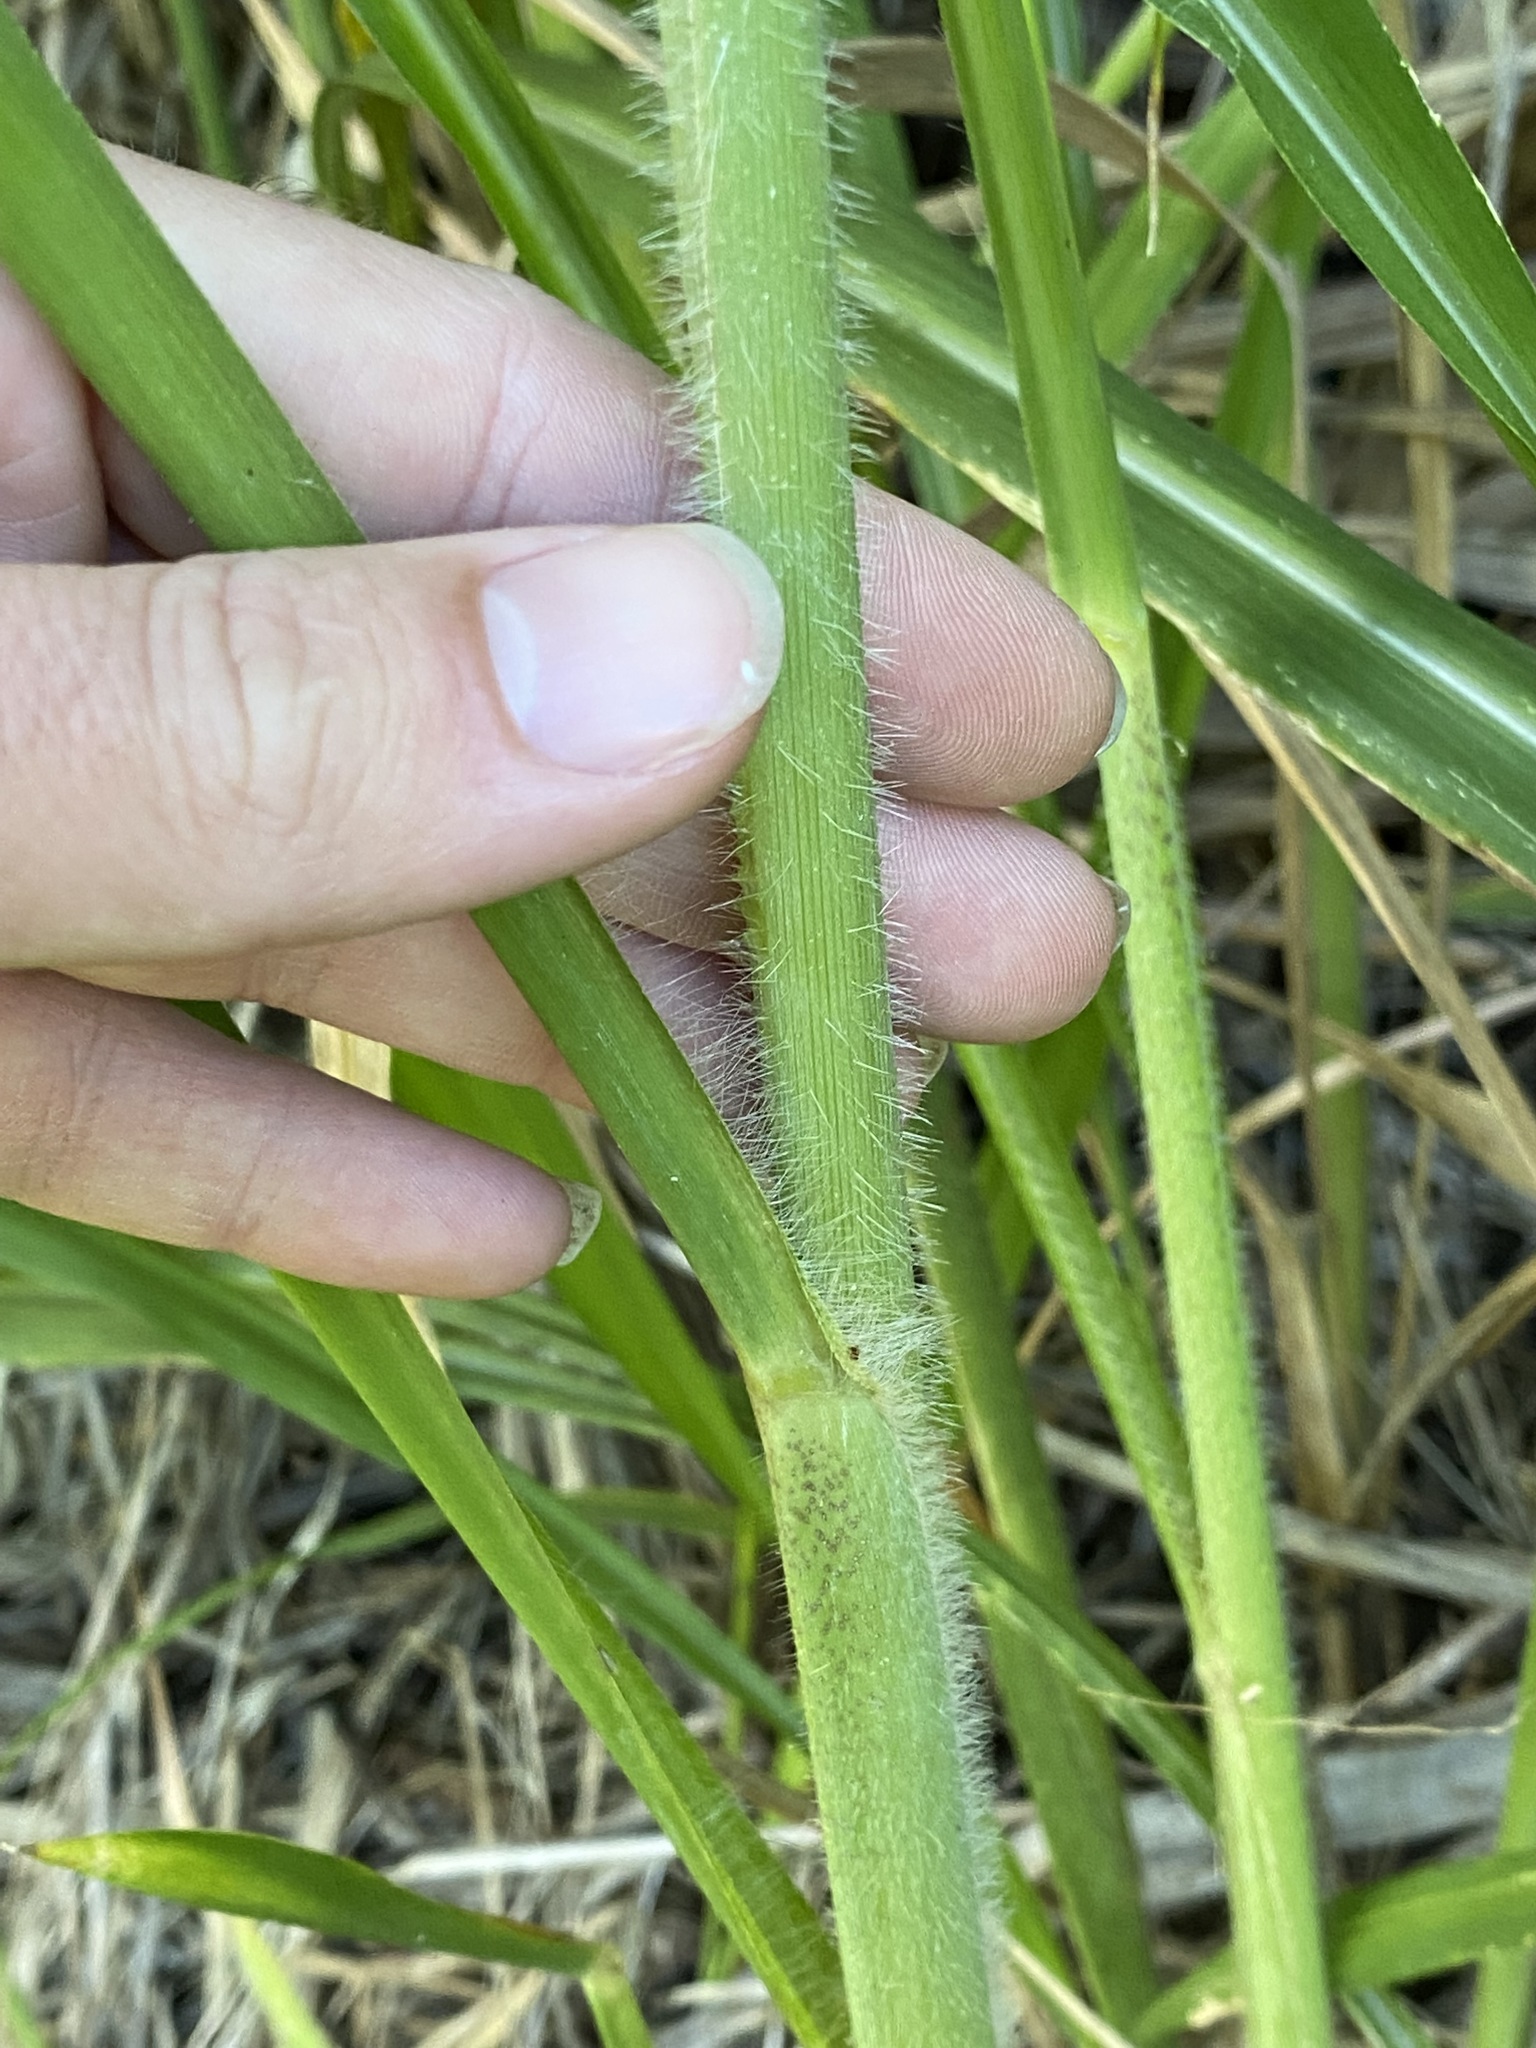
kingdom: Plantae
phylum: Tracheophyta
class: Liliopsida
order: Poales
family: Poaceae
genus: Megathyrsus
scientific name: Megathyrsus maximus
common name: Guineagrass
